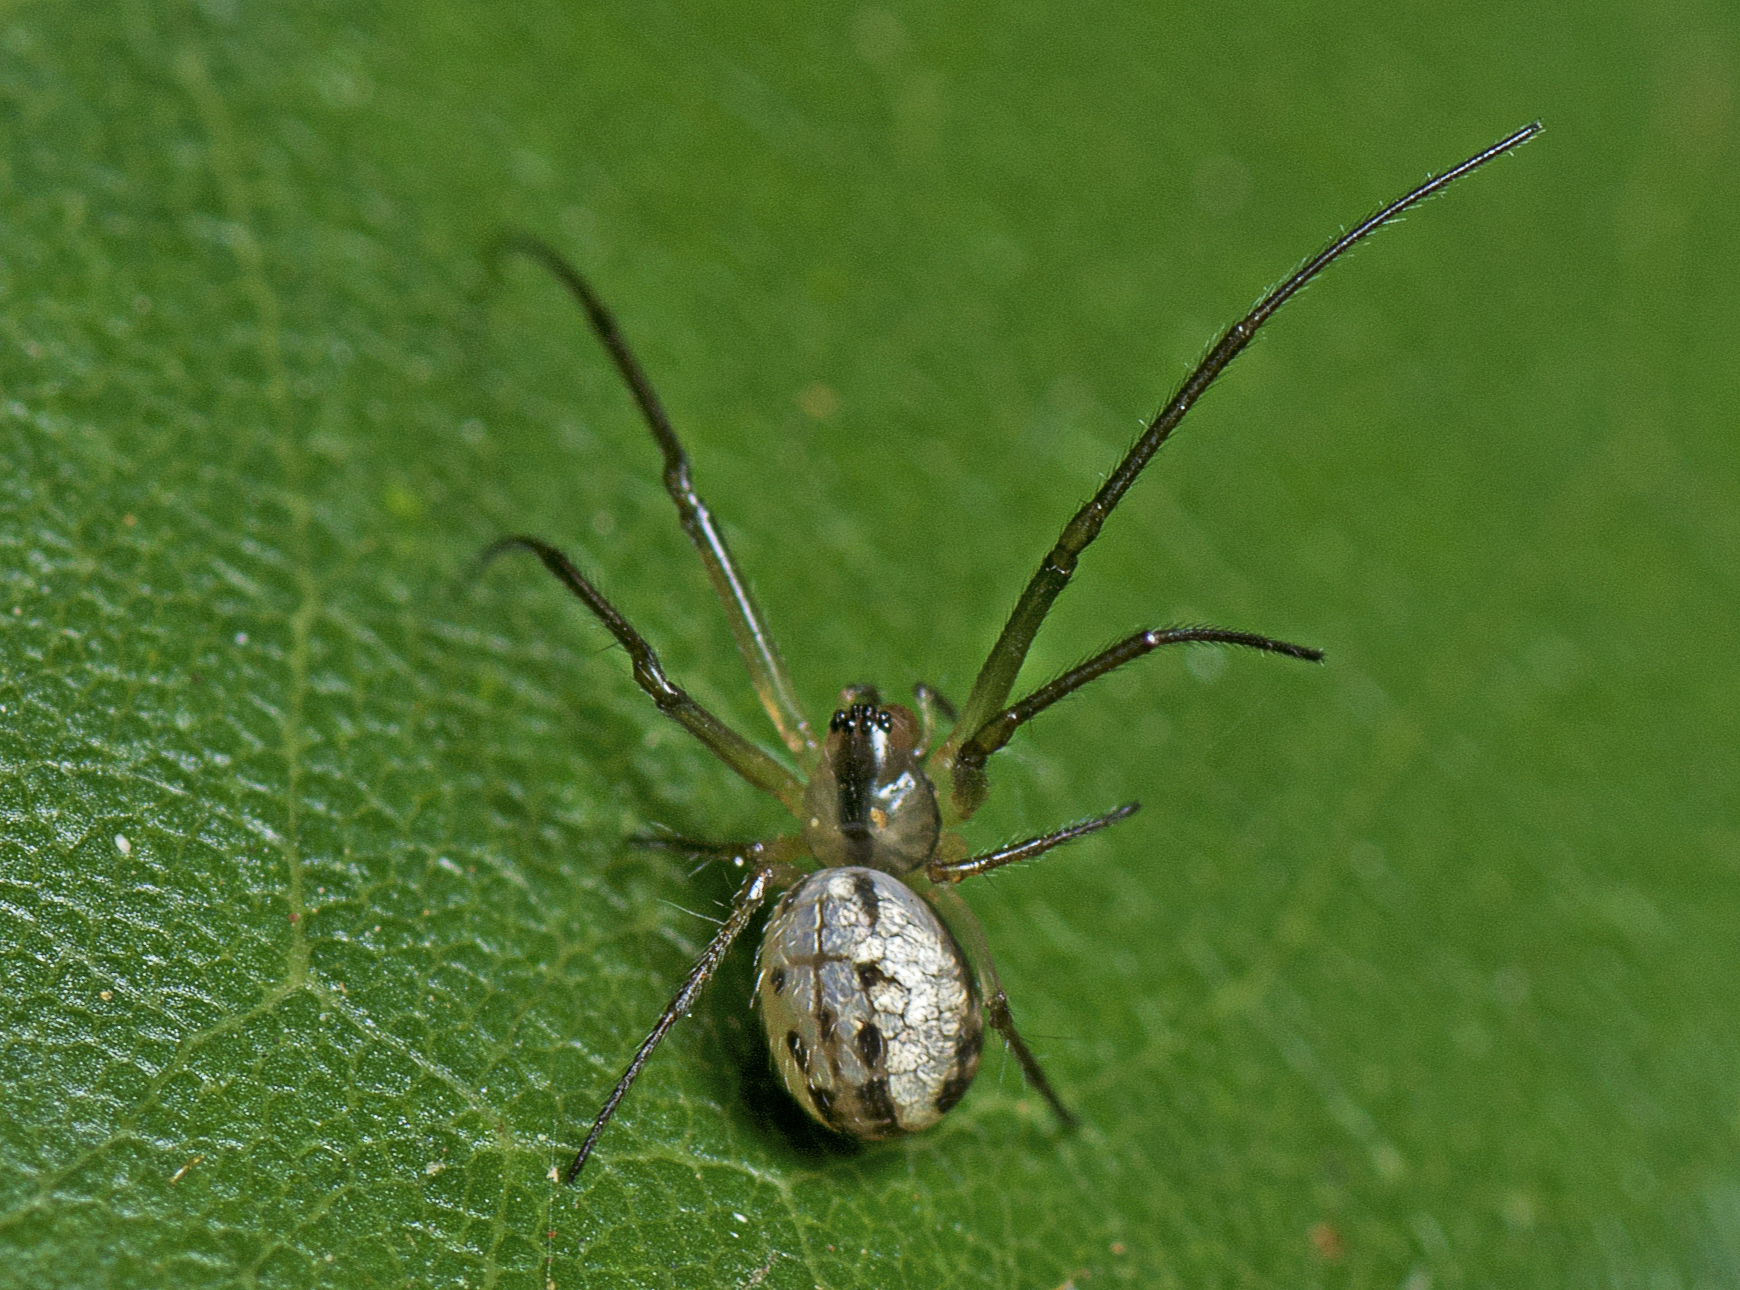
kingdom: Animalia
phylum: Arthropoda
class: Arachnida
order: Araneae
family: Tetragnathidae
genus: Nanometa
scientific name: Nanometa
